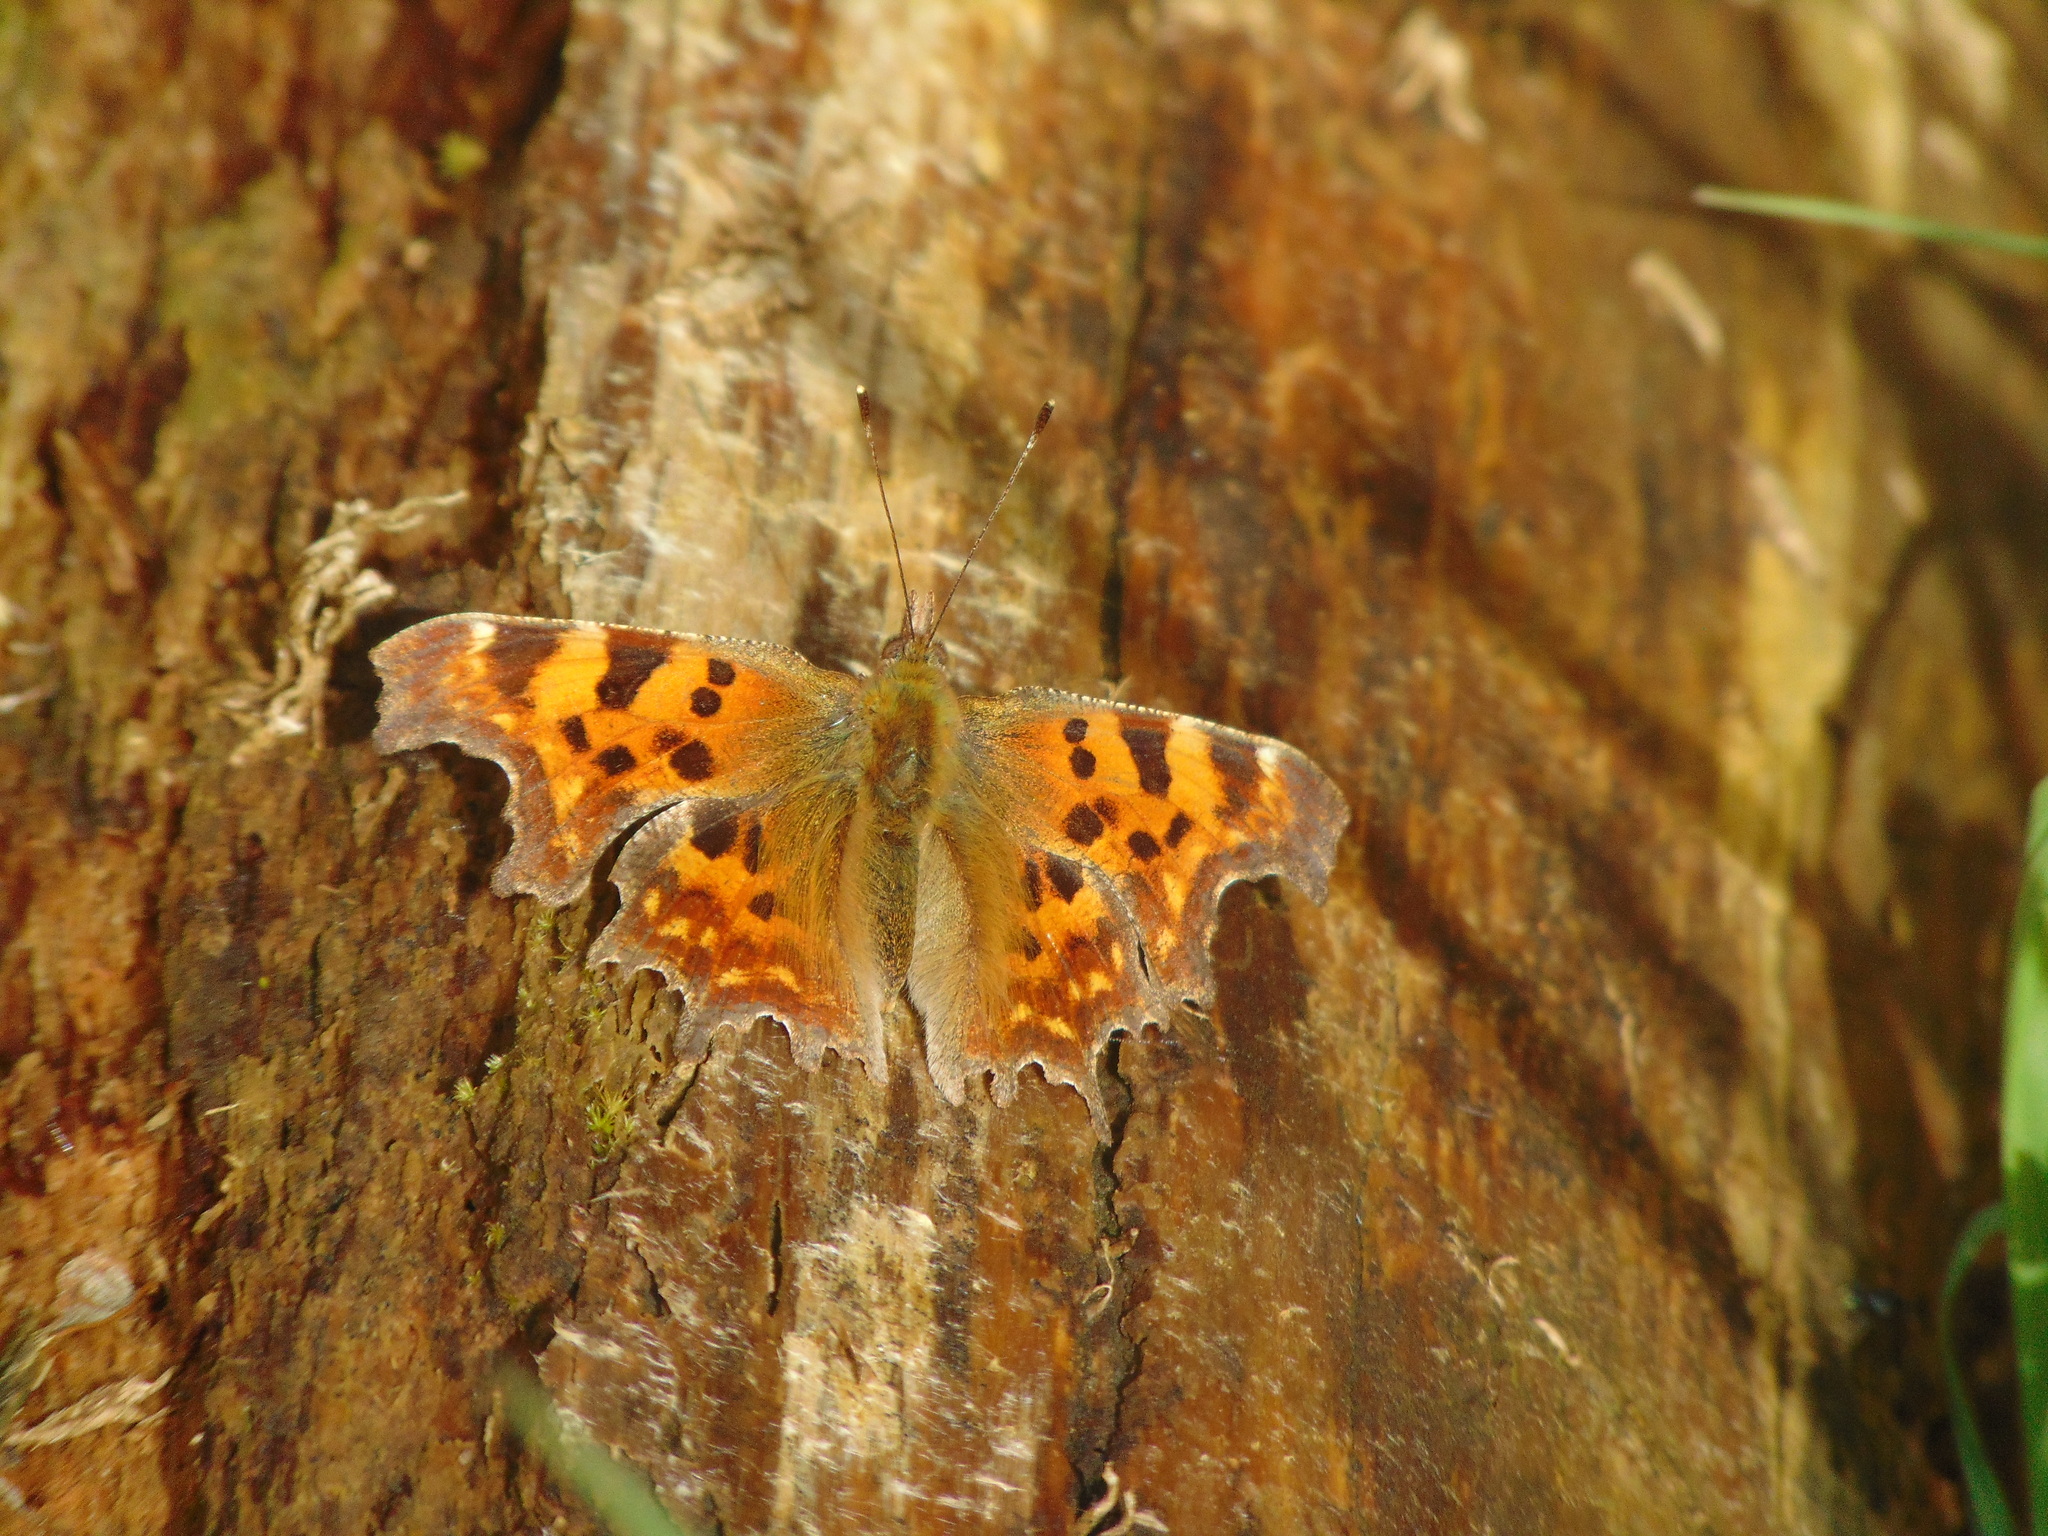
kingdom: Animalia
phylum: Arthropoda
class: Insecta
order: Lepidoptera
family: Nymphalidae
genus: Polygonia
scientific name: Polygonia c-album
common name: Comma
